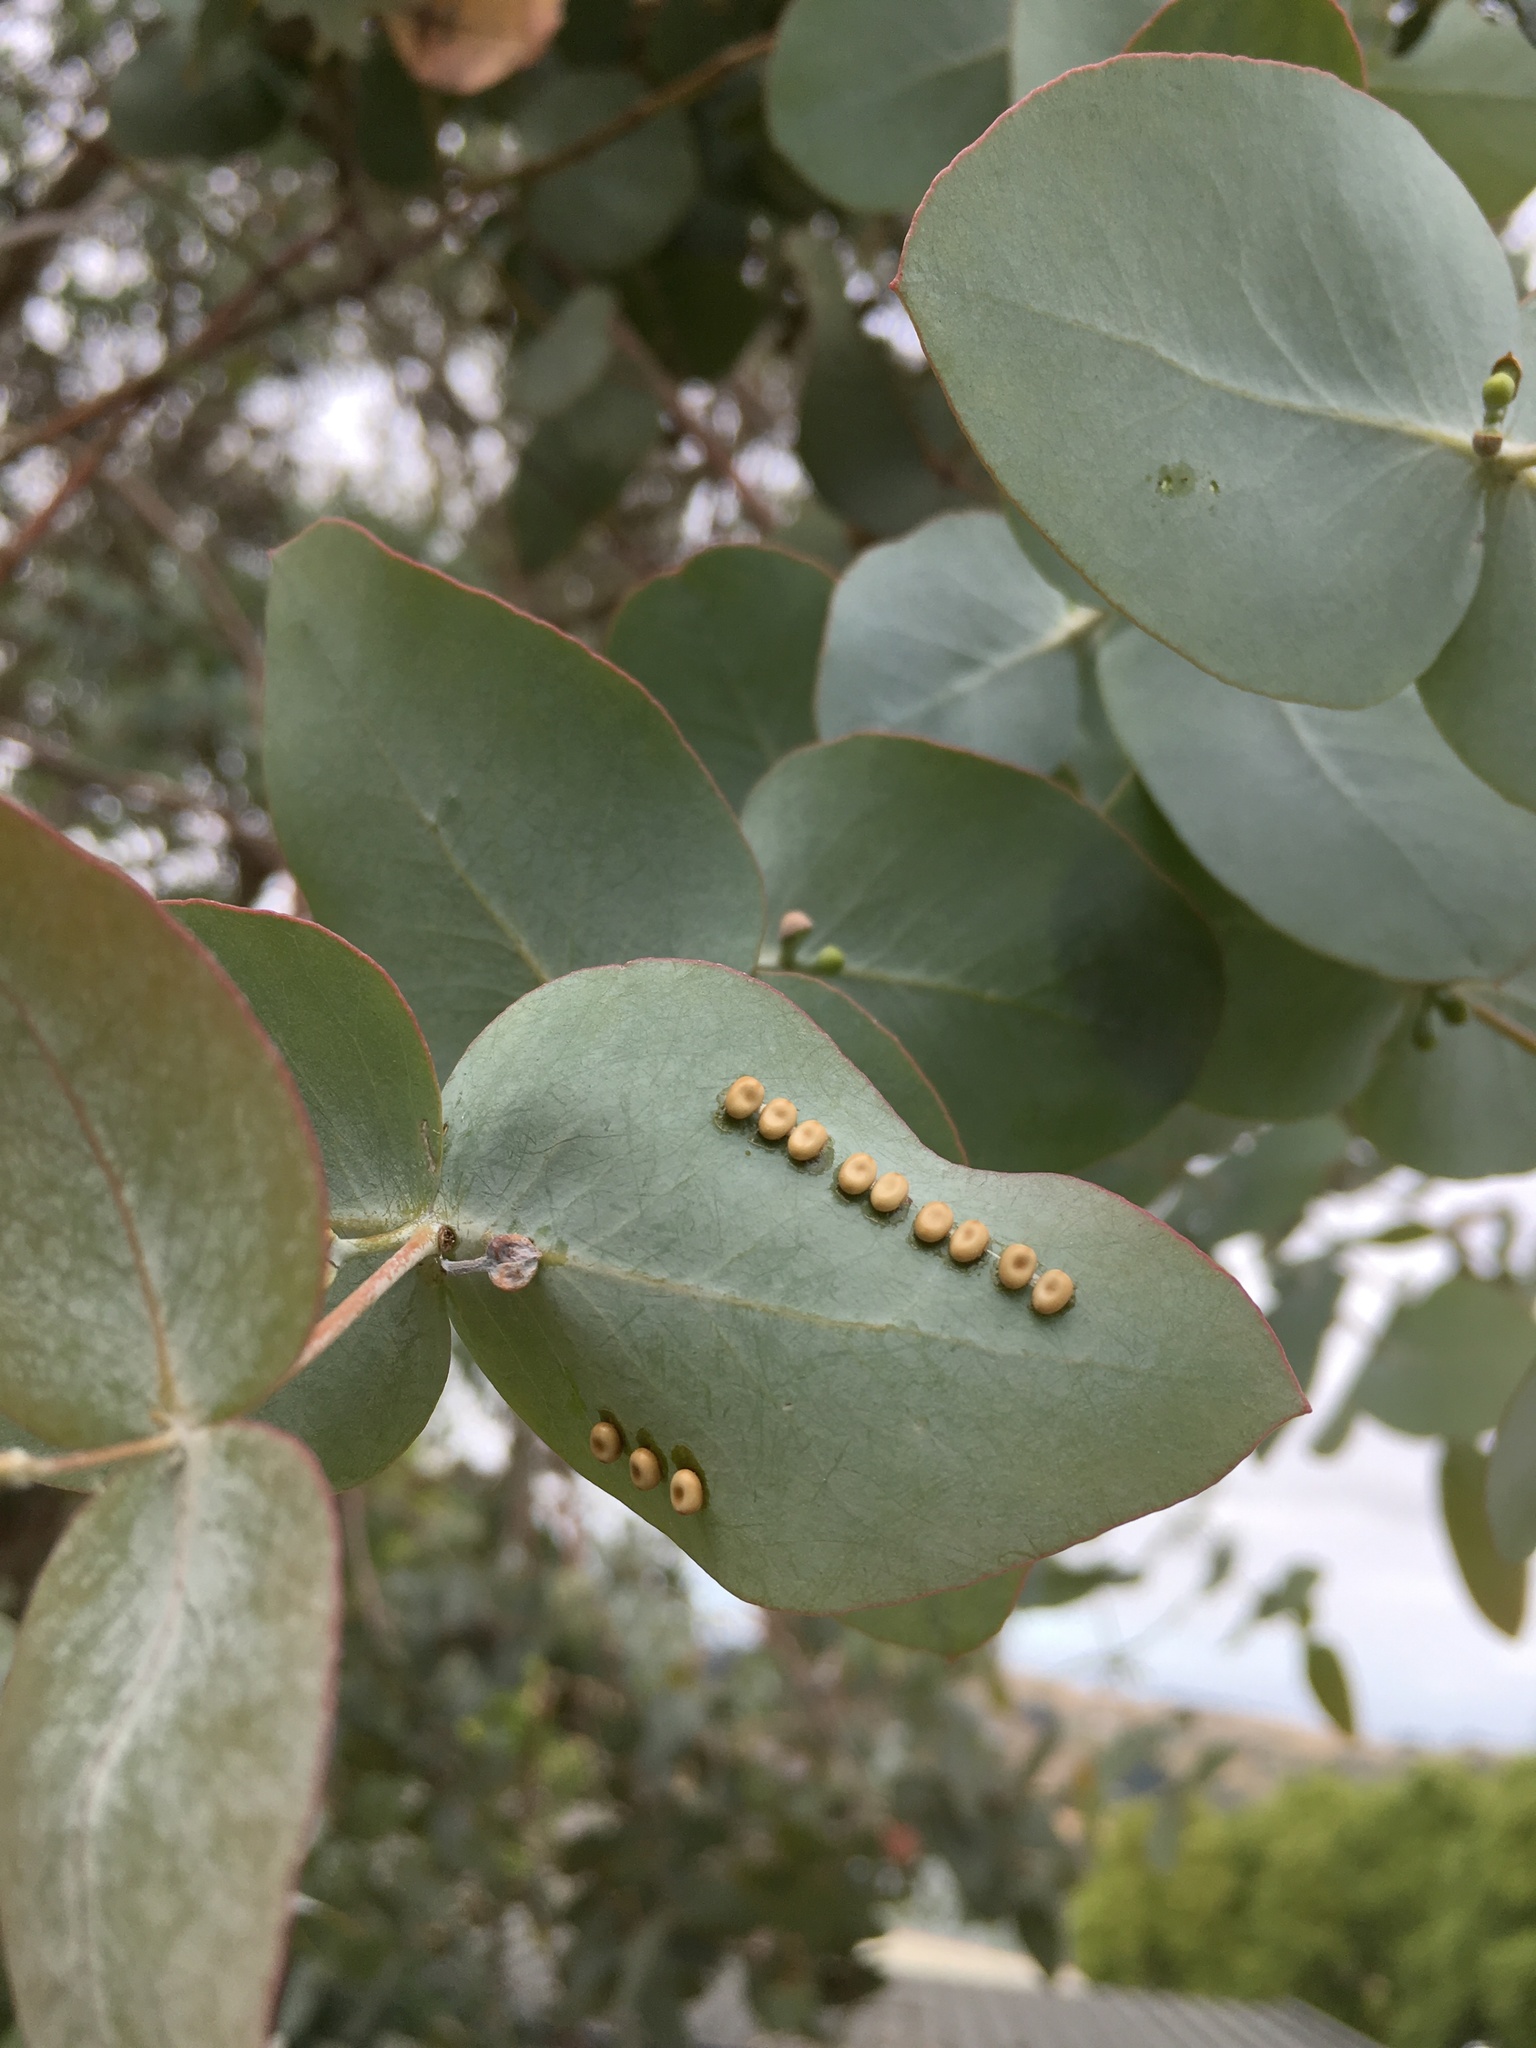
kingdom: Animalia
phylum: Arthropoda
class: Insecta
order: Lepidoptera
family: Saturniidae
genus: Opodiphthera
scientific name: Opodiphthera
